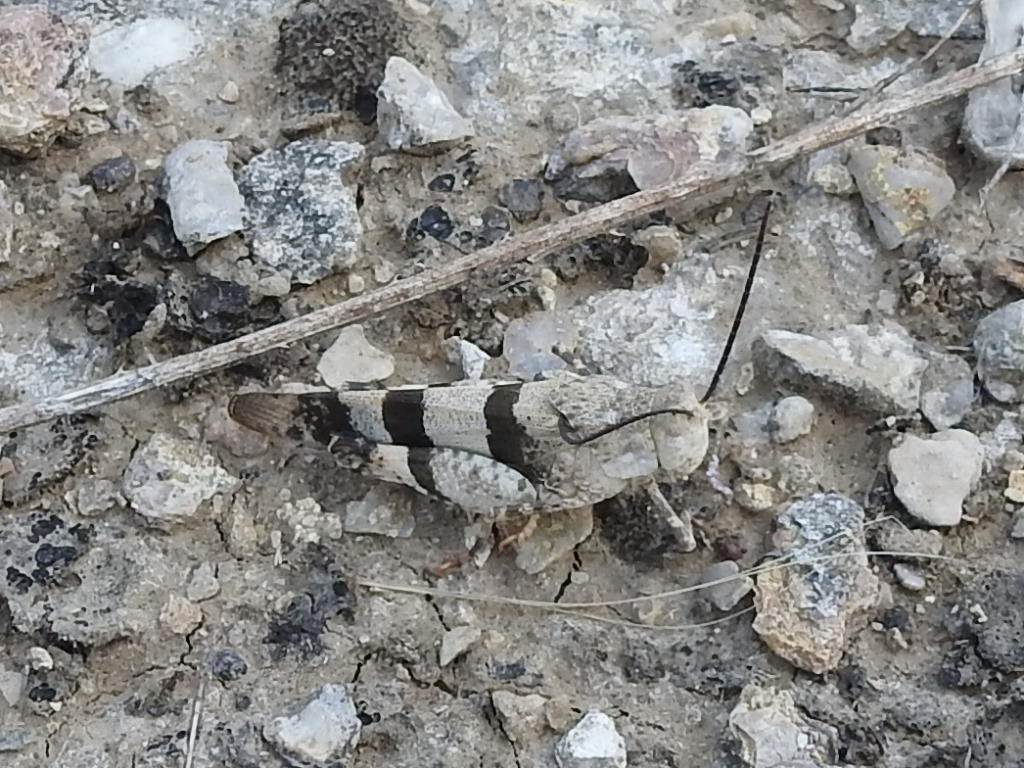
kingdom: Animalia
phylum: Arthropoda
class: Insecta
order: Orthoptera
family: Acrididae
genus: Hadrotettix
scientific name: Hadrotettix trifasciatus
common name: Threebanded grasshopper
